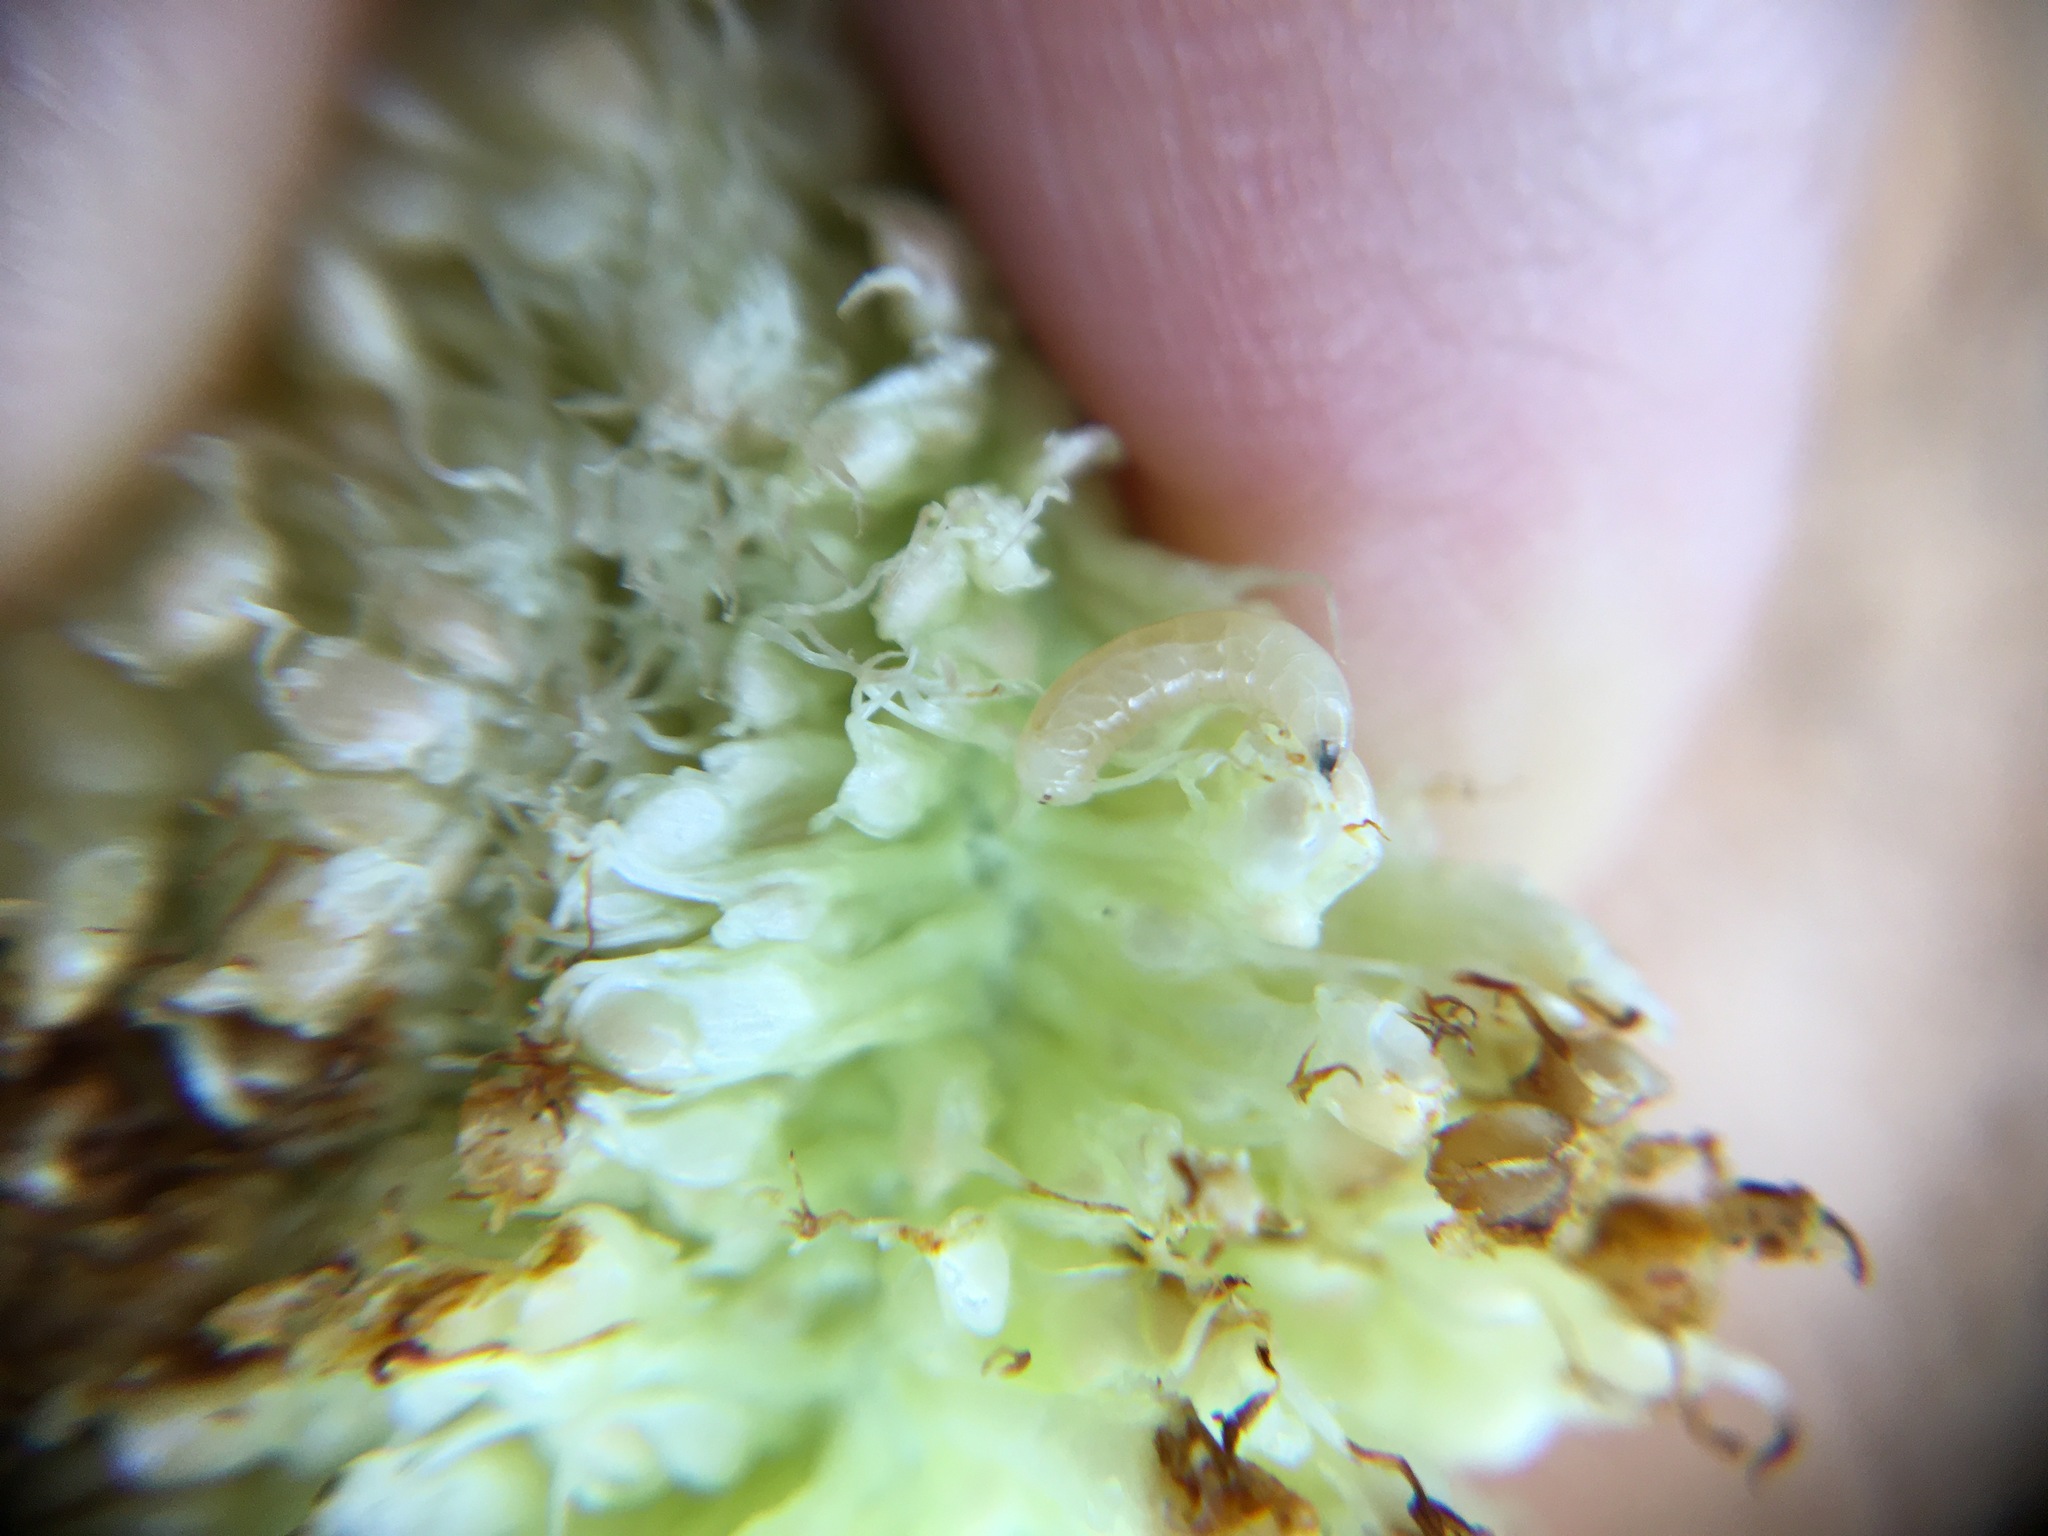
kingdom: Animalia
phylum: Arthropoda
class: Insecta
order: Diptera
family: Lonchaeidae
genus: Silba
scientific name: Silba adipata
